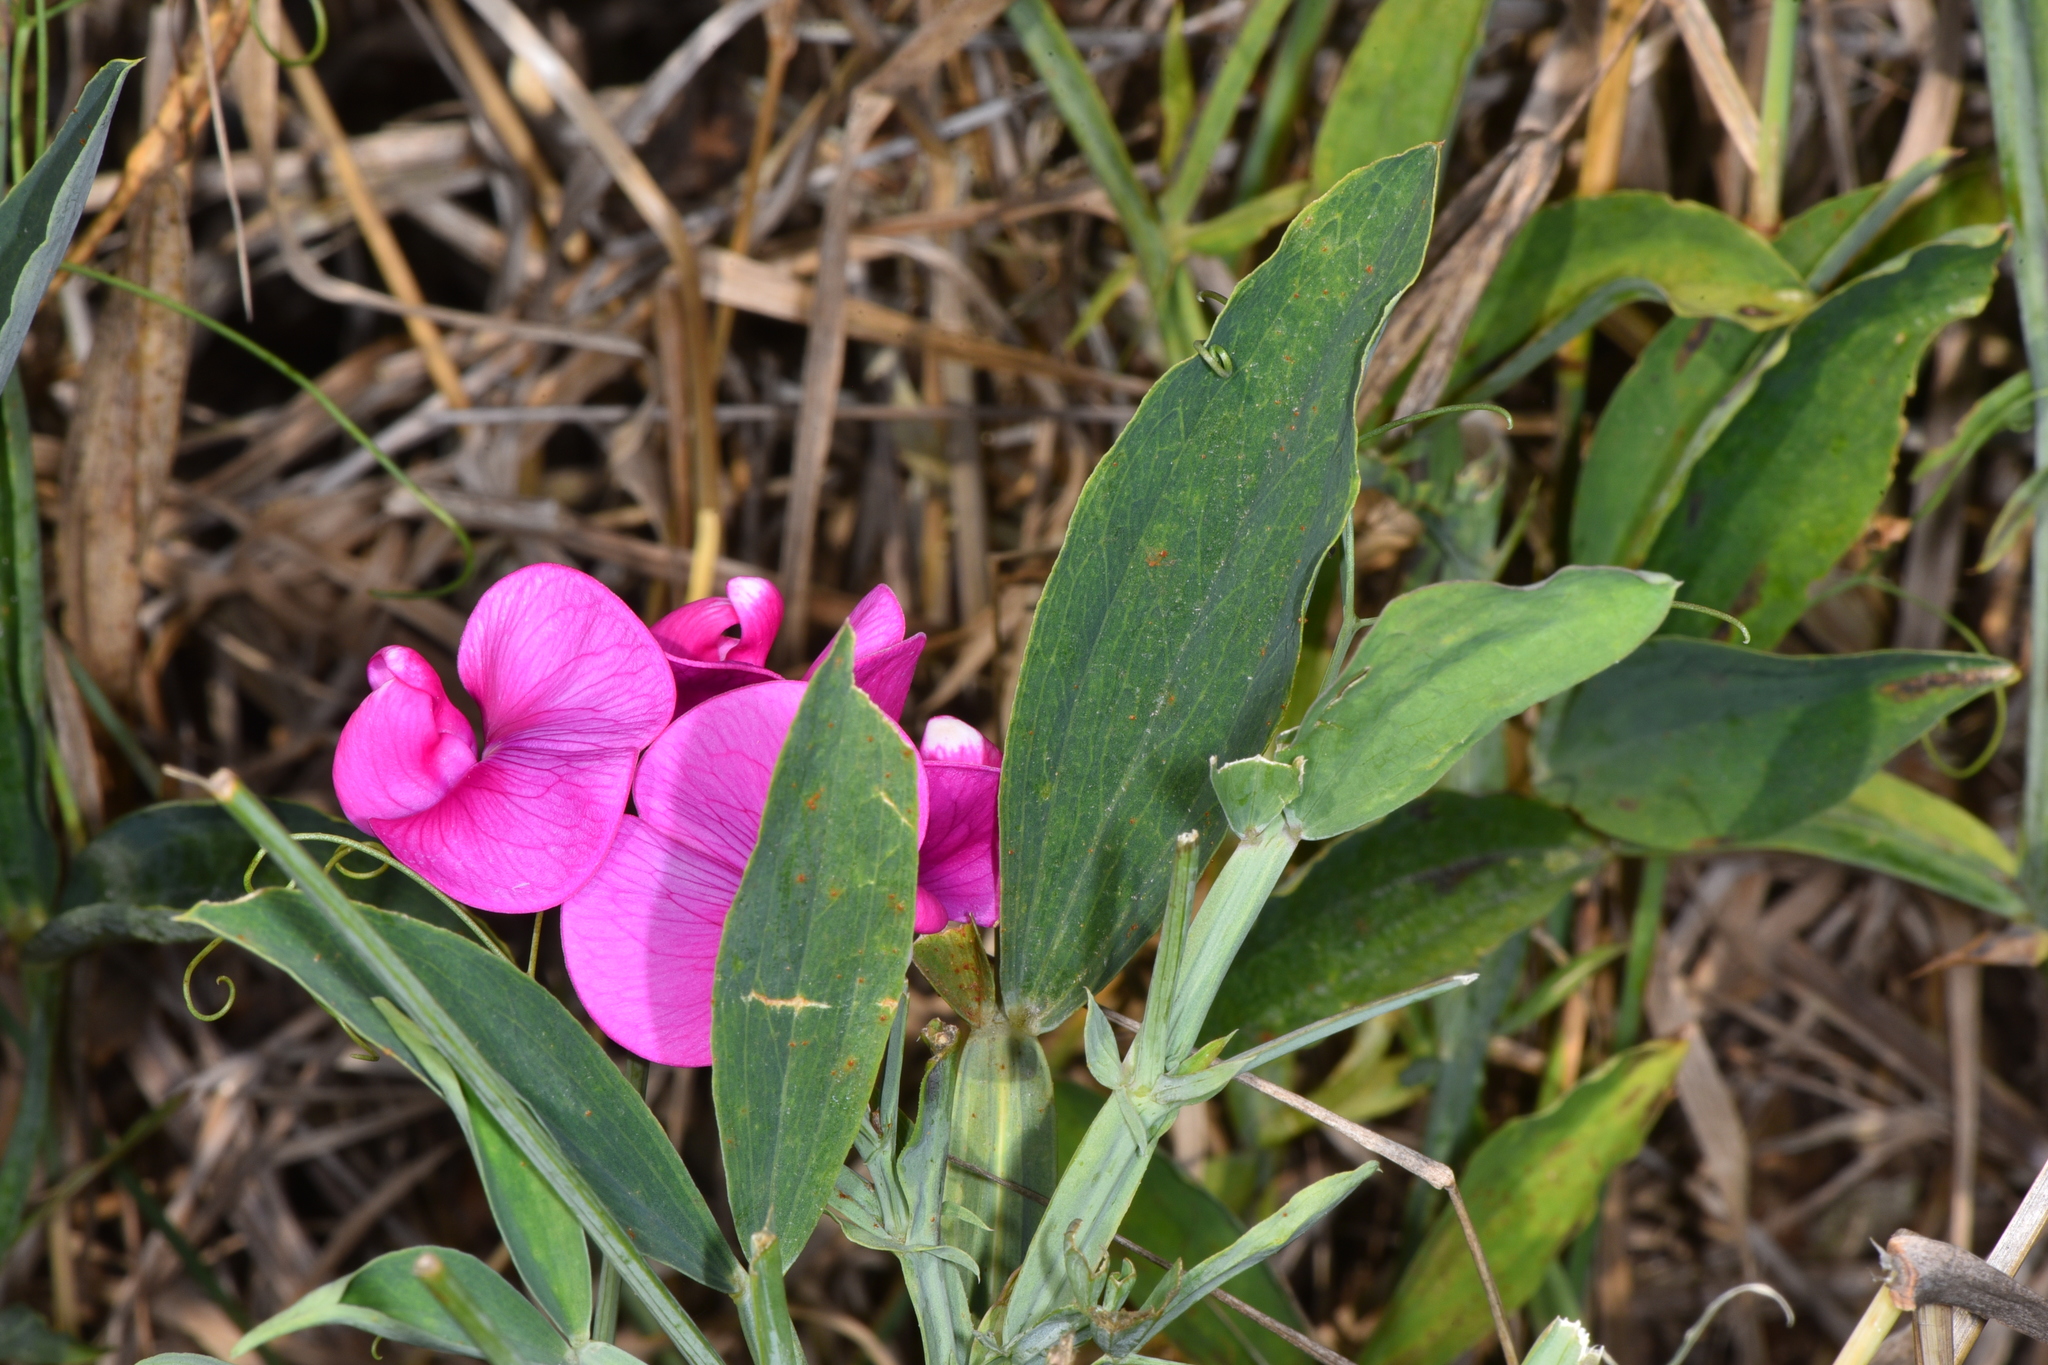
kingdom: Plantae
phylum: Tracheophyta
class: Magnoliopsida
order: Fabales
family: Fabaceae
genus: Lathyrus
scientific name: Lathyrus latifolius
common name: Perennial pea
